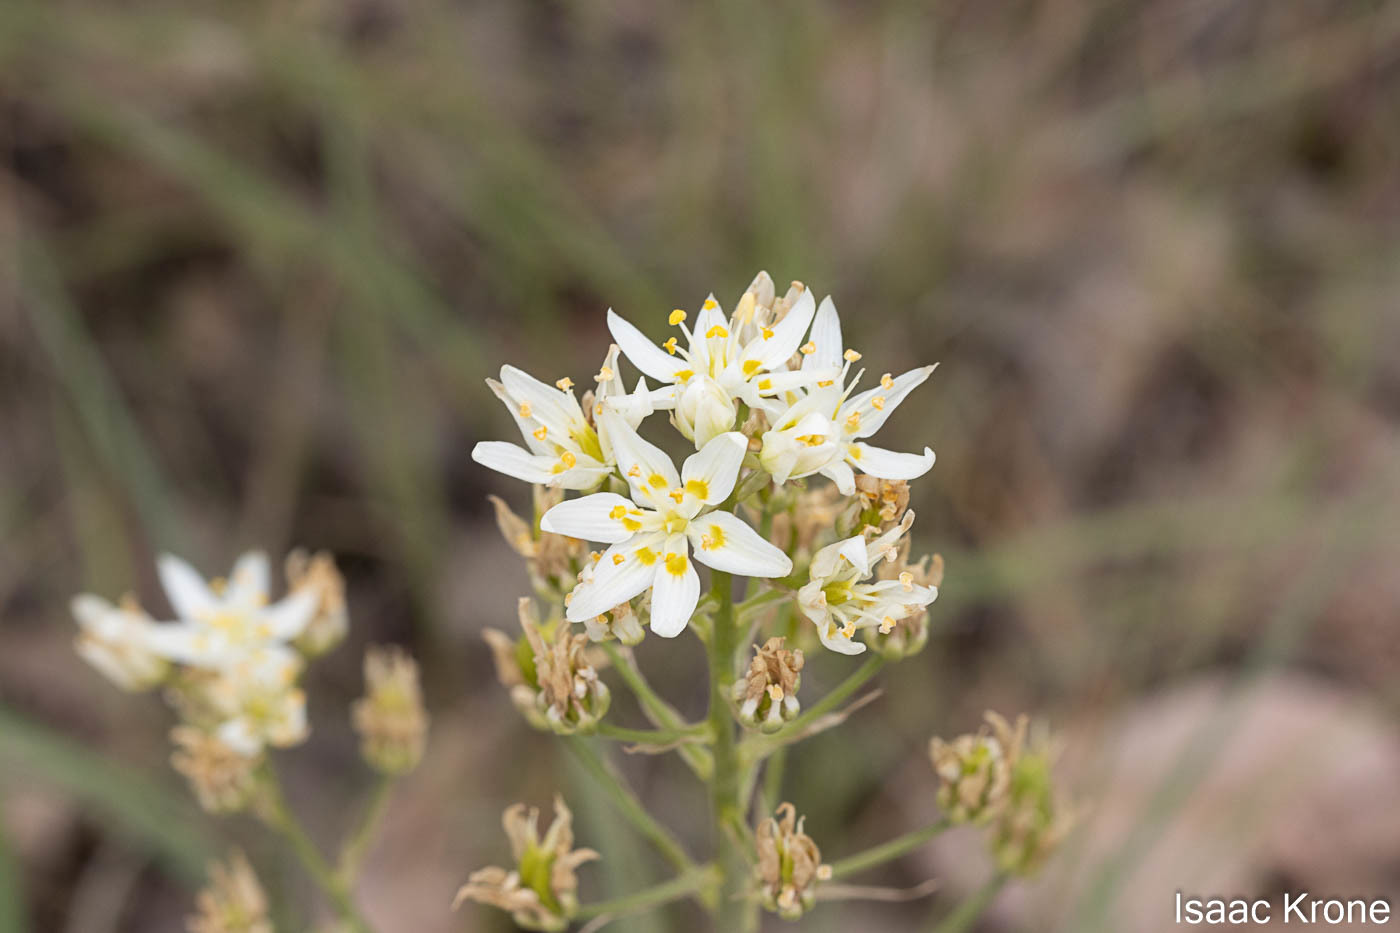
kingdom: Plantae
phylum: Tracheophyta
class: Liliopsida
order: Liliales
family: Melanthiaceae
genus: Toxicoscordion
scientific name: Toxicoscordion fremontii
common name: Fremont's death camas
